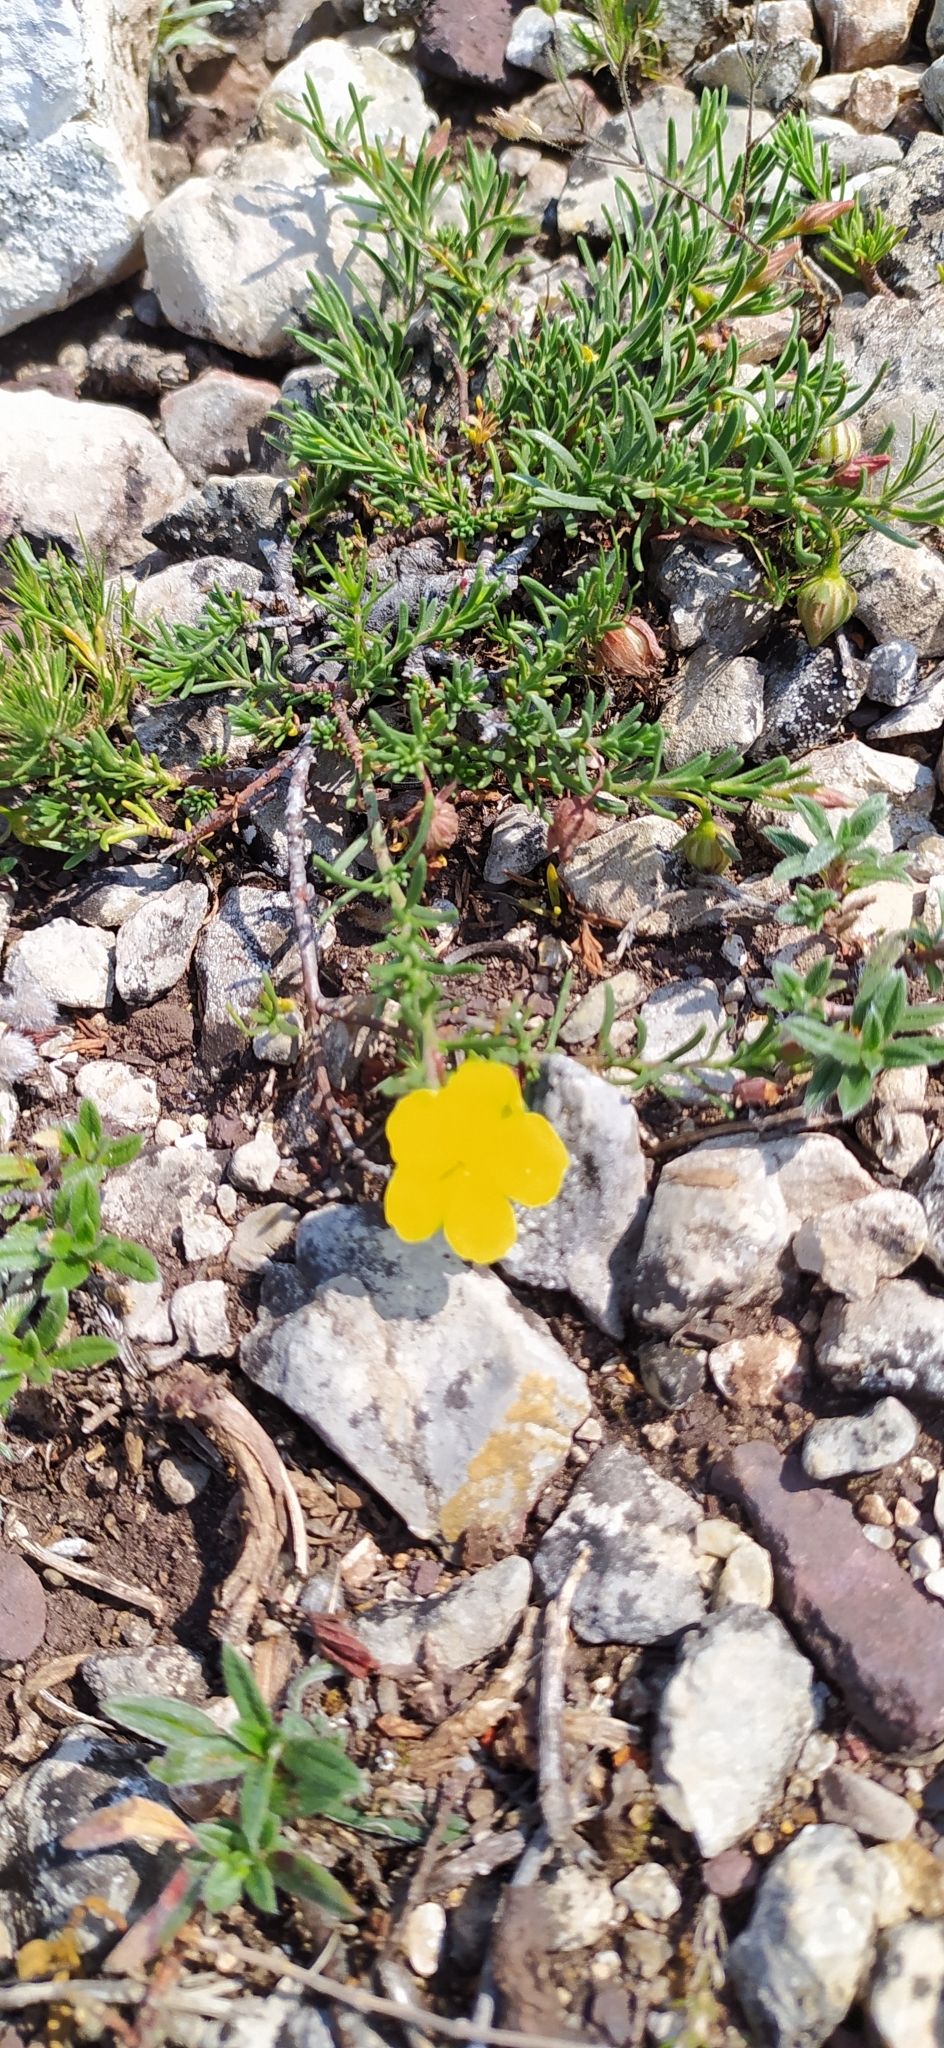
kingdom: Plantae
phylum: Tracheophyta
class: Magnoliopsida
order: Malvales
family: Cistaceae
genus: Fumana
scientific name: Fumana procumbens
